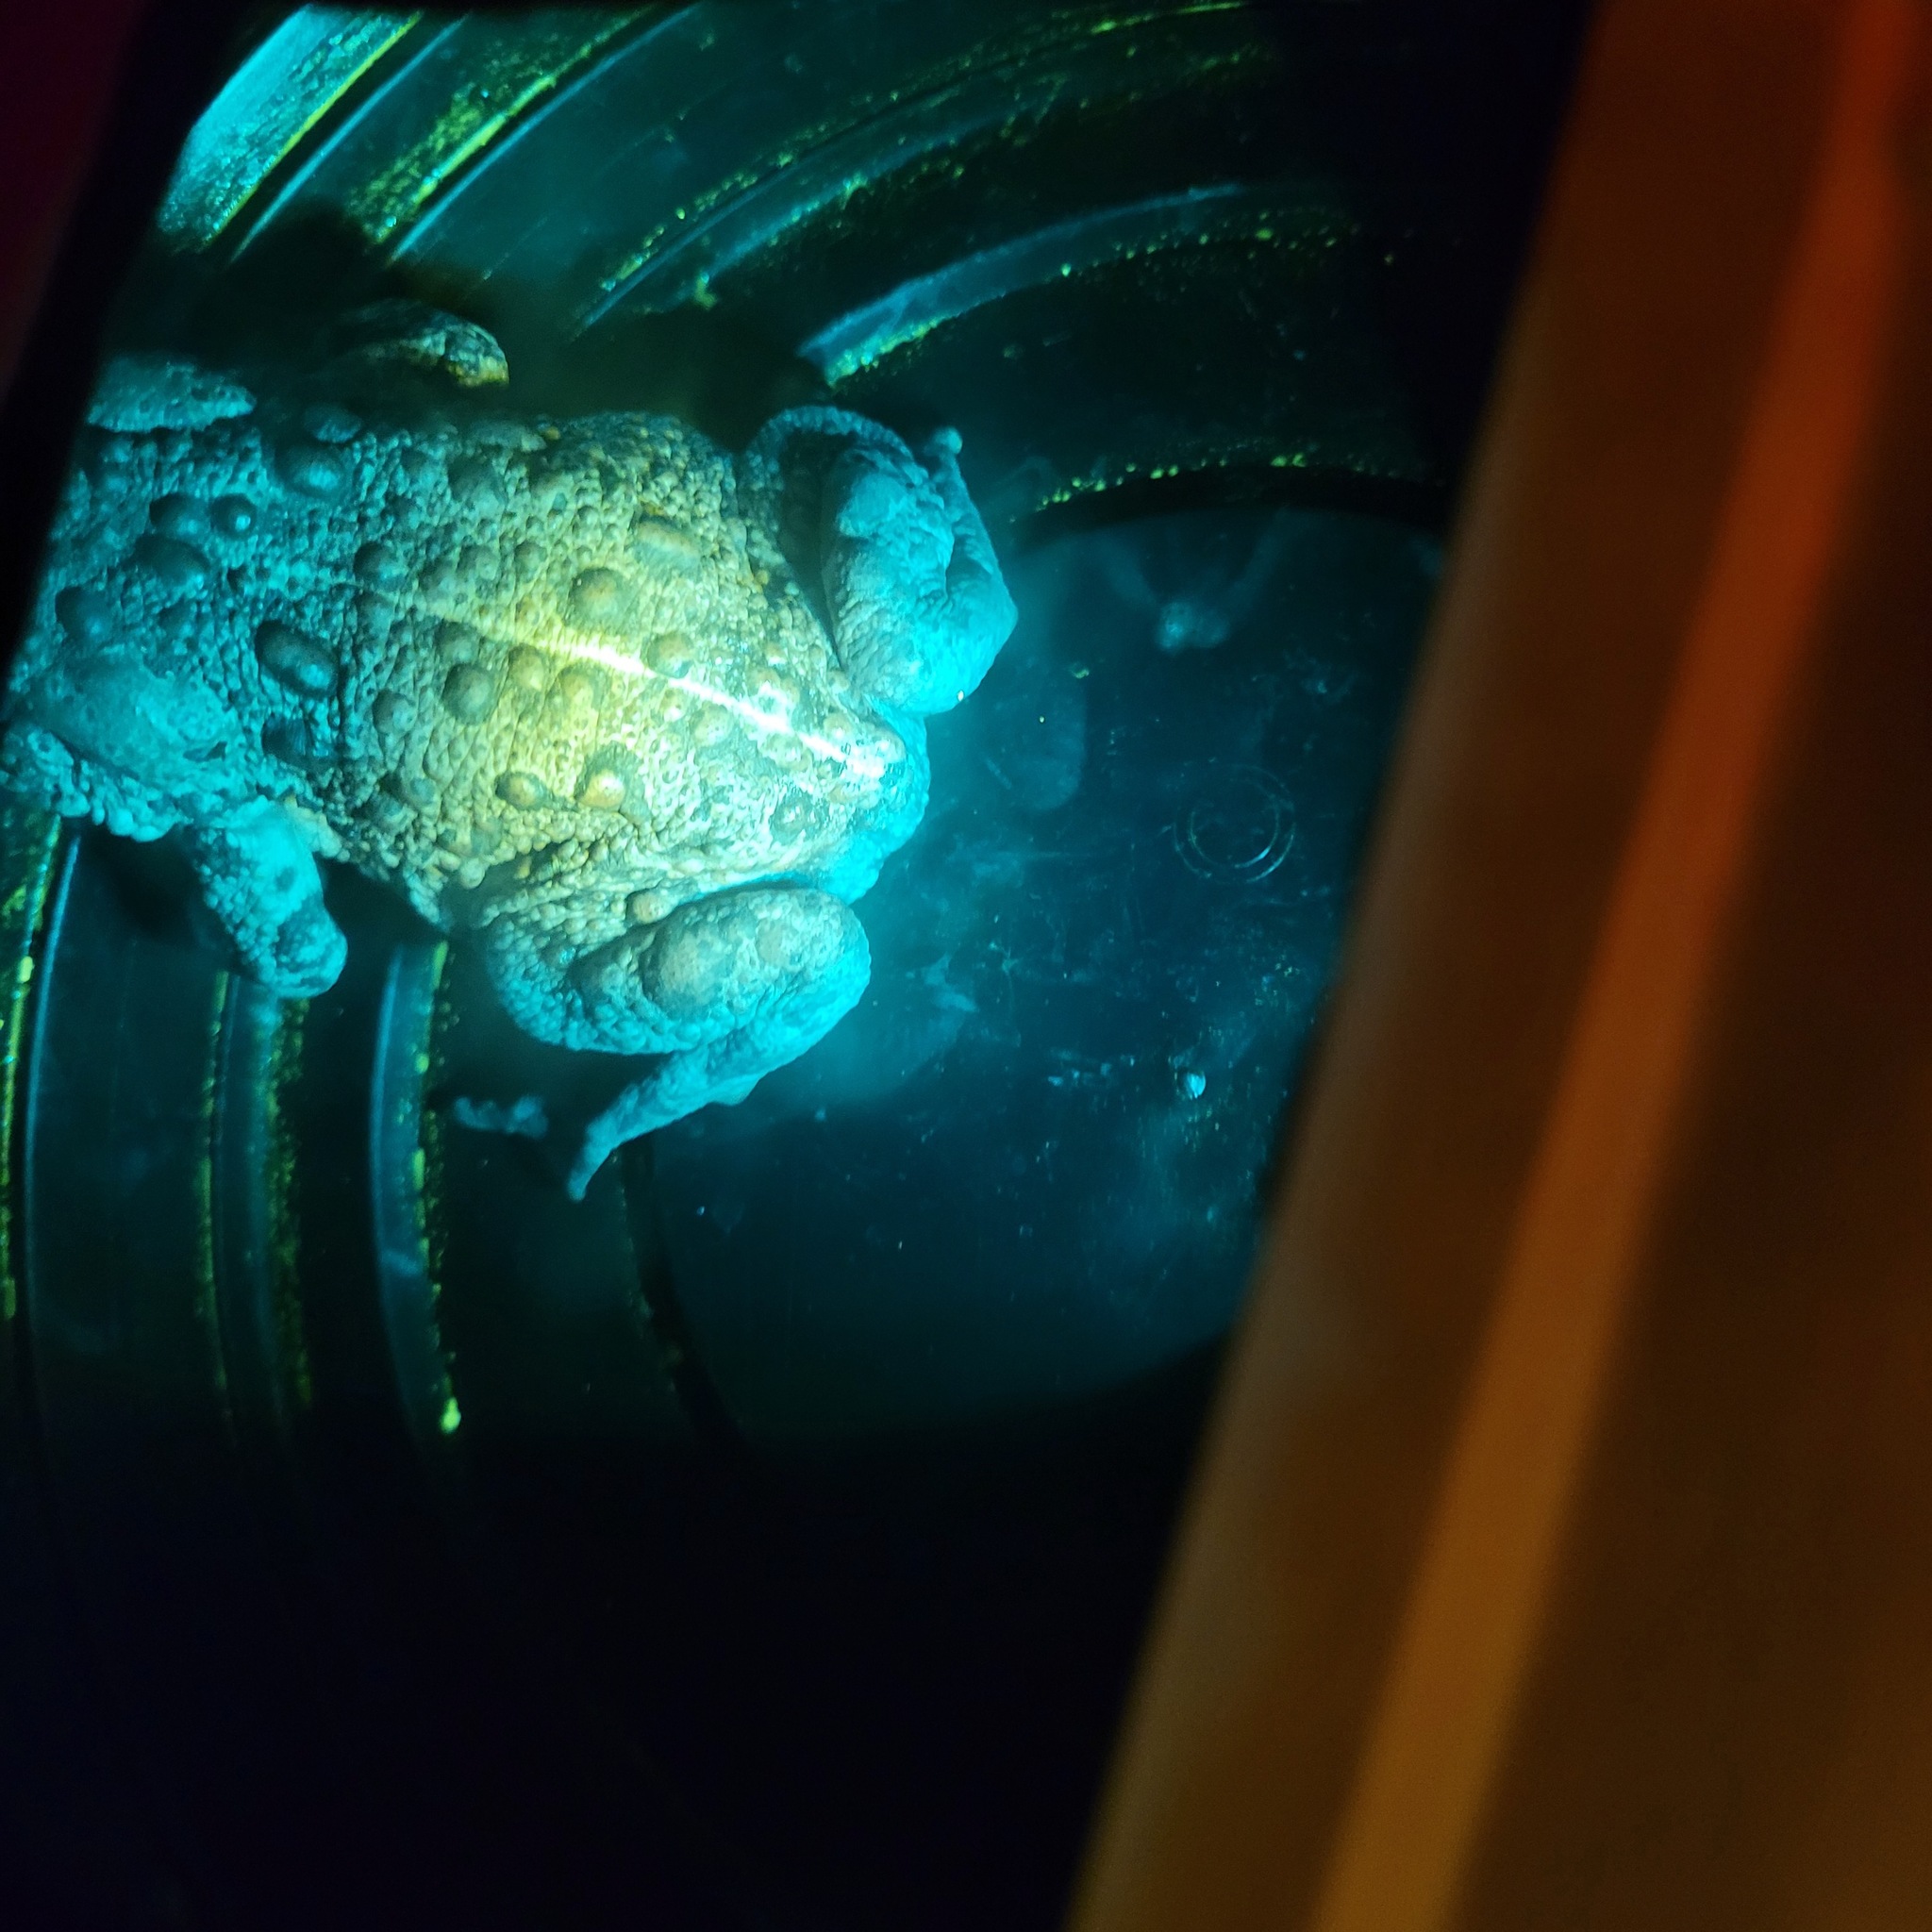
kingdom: Animalia
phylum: Chordata
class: Amphibia
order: Anura
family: Bufonidae
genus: Anaxyrus
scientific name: Anaxyrus boreas
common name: Western toad
